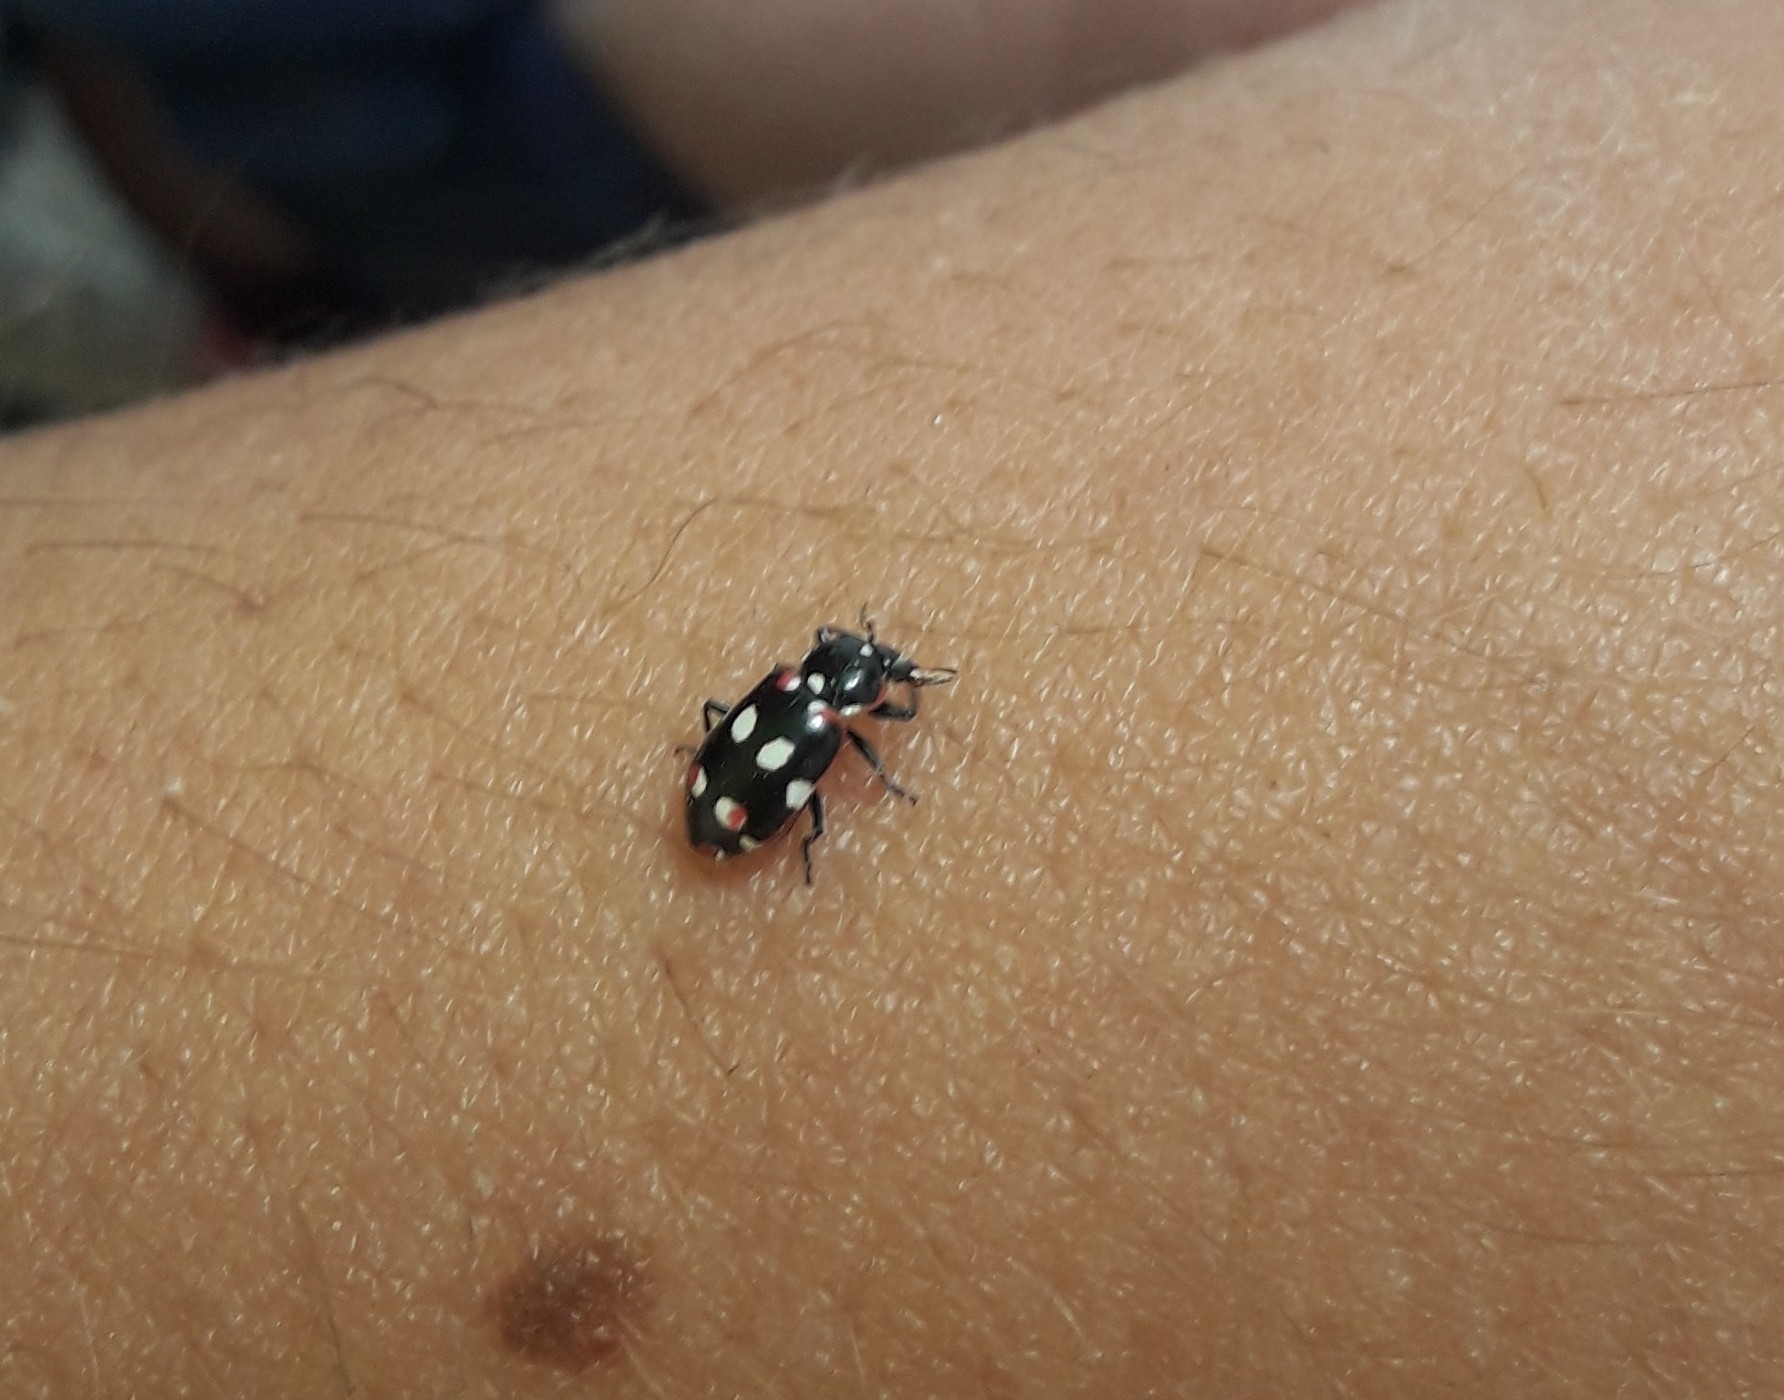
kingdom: Animalia
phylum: Arthropoda
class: Insecta
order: Coleoptera
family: Coccinellidae
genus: Eriopis
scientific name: Eriopis connexa
